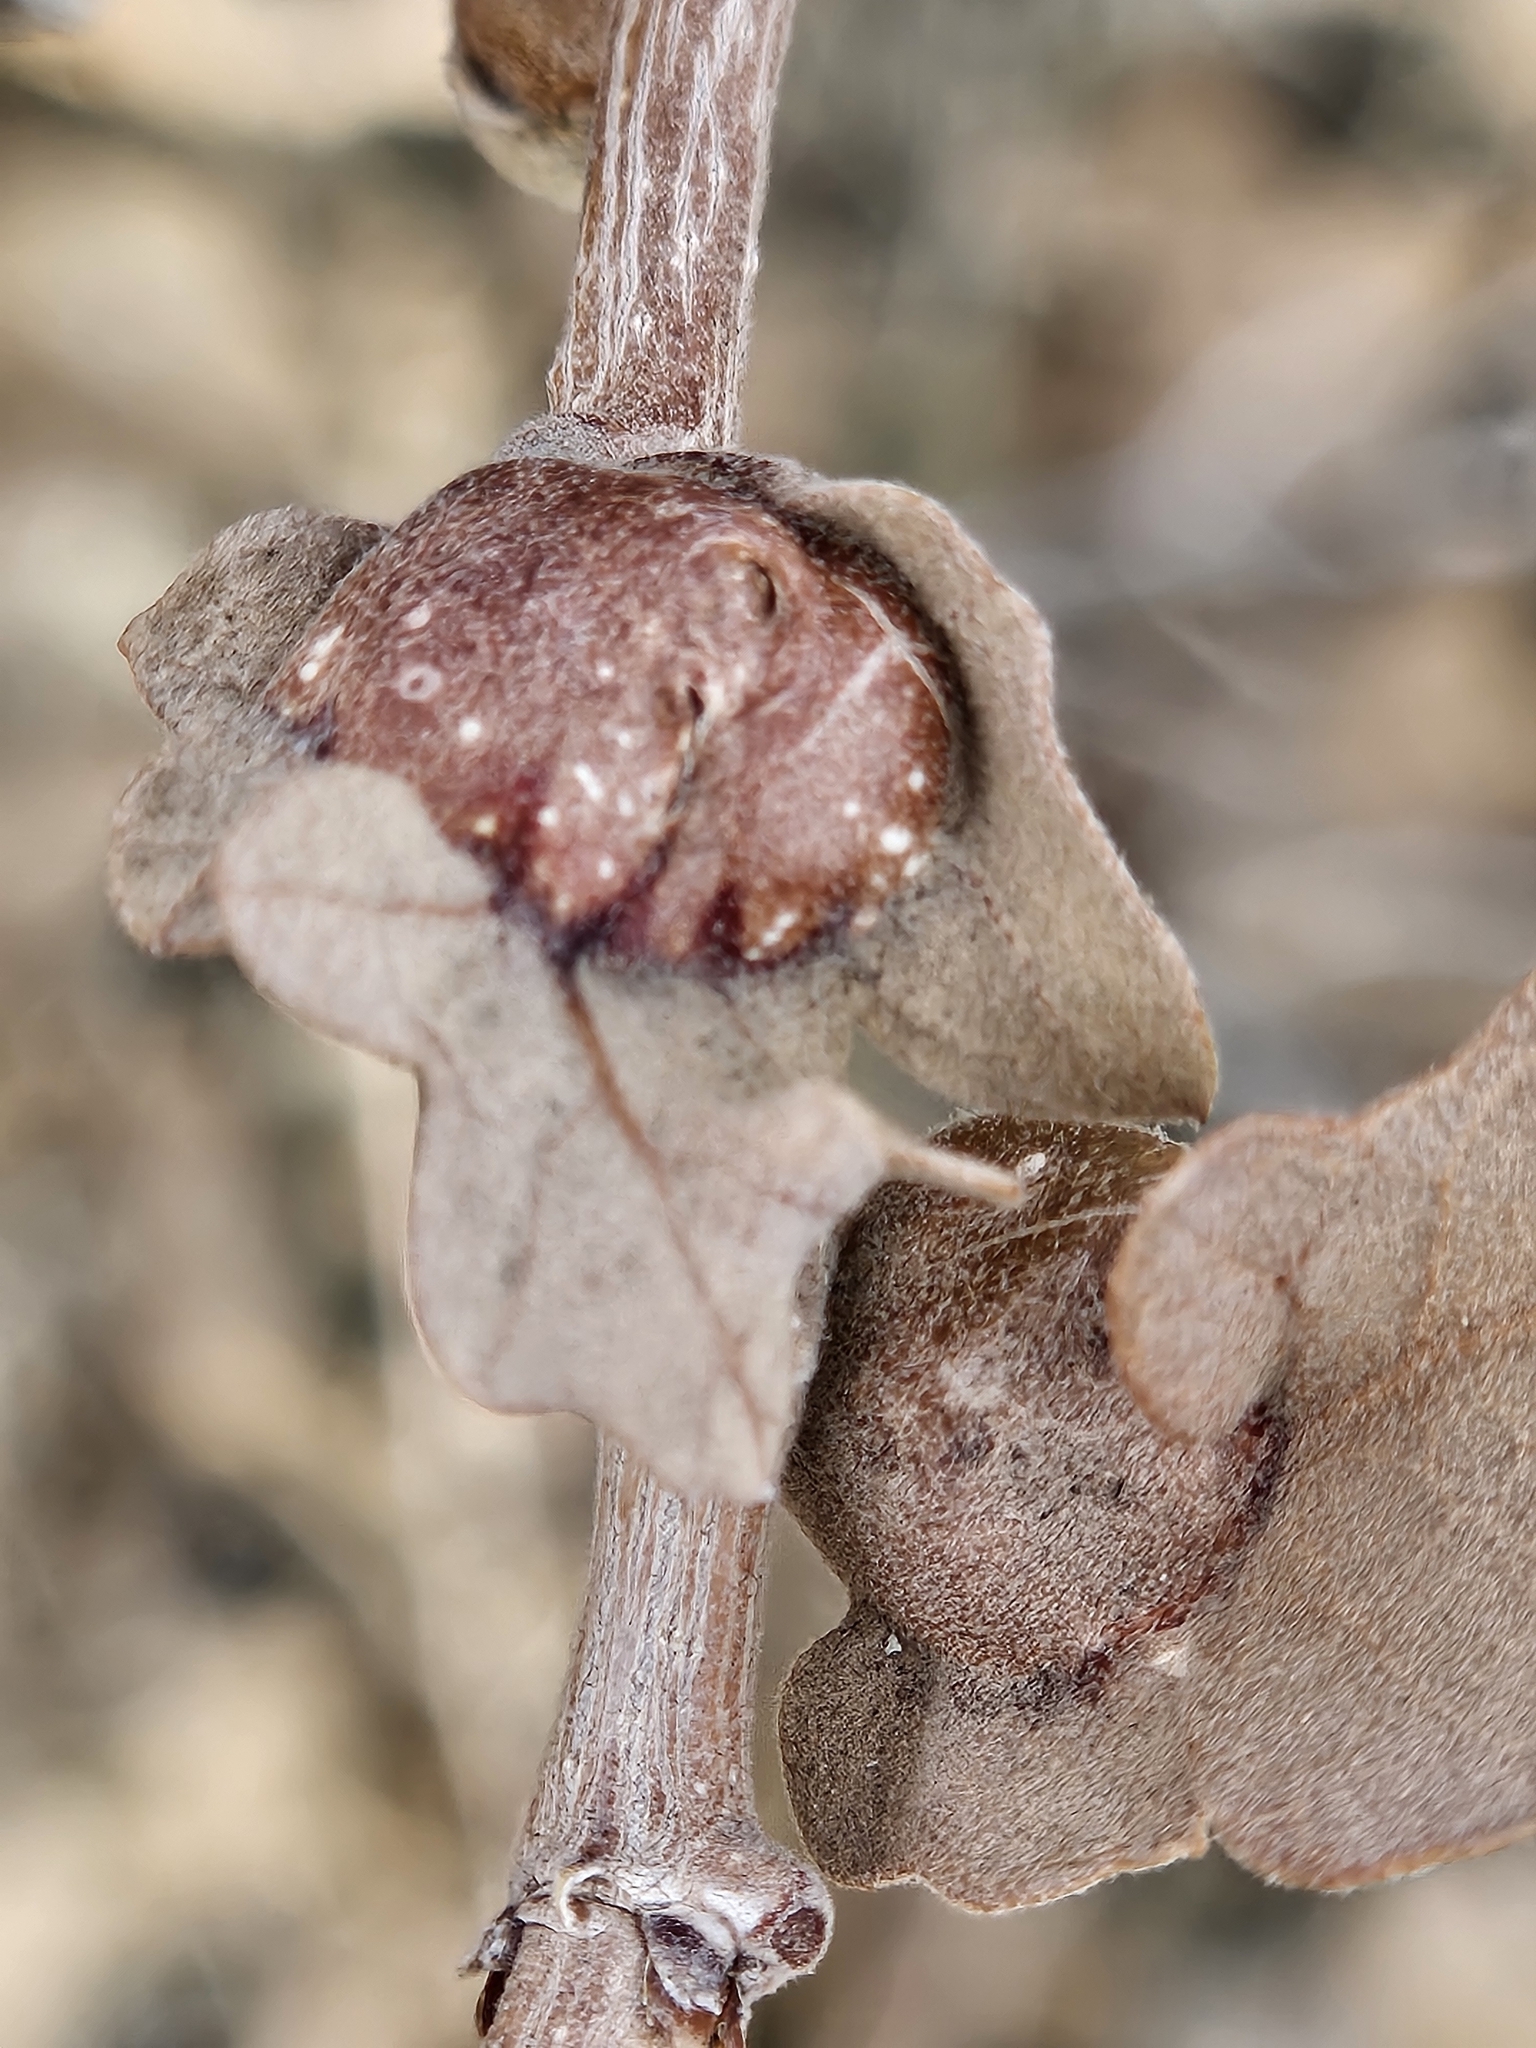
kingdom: Animalia
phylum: Arthropoda
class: Insecta
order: Hymenoptera
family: Cynipidae
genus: Andricus
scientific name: Andricus
